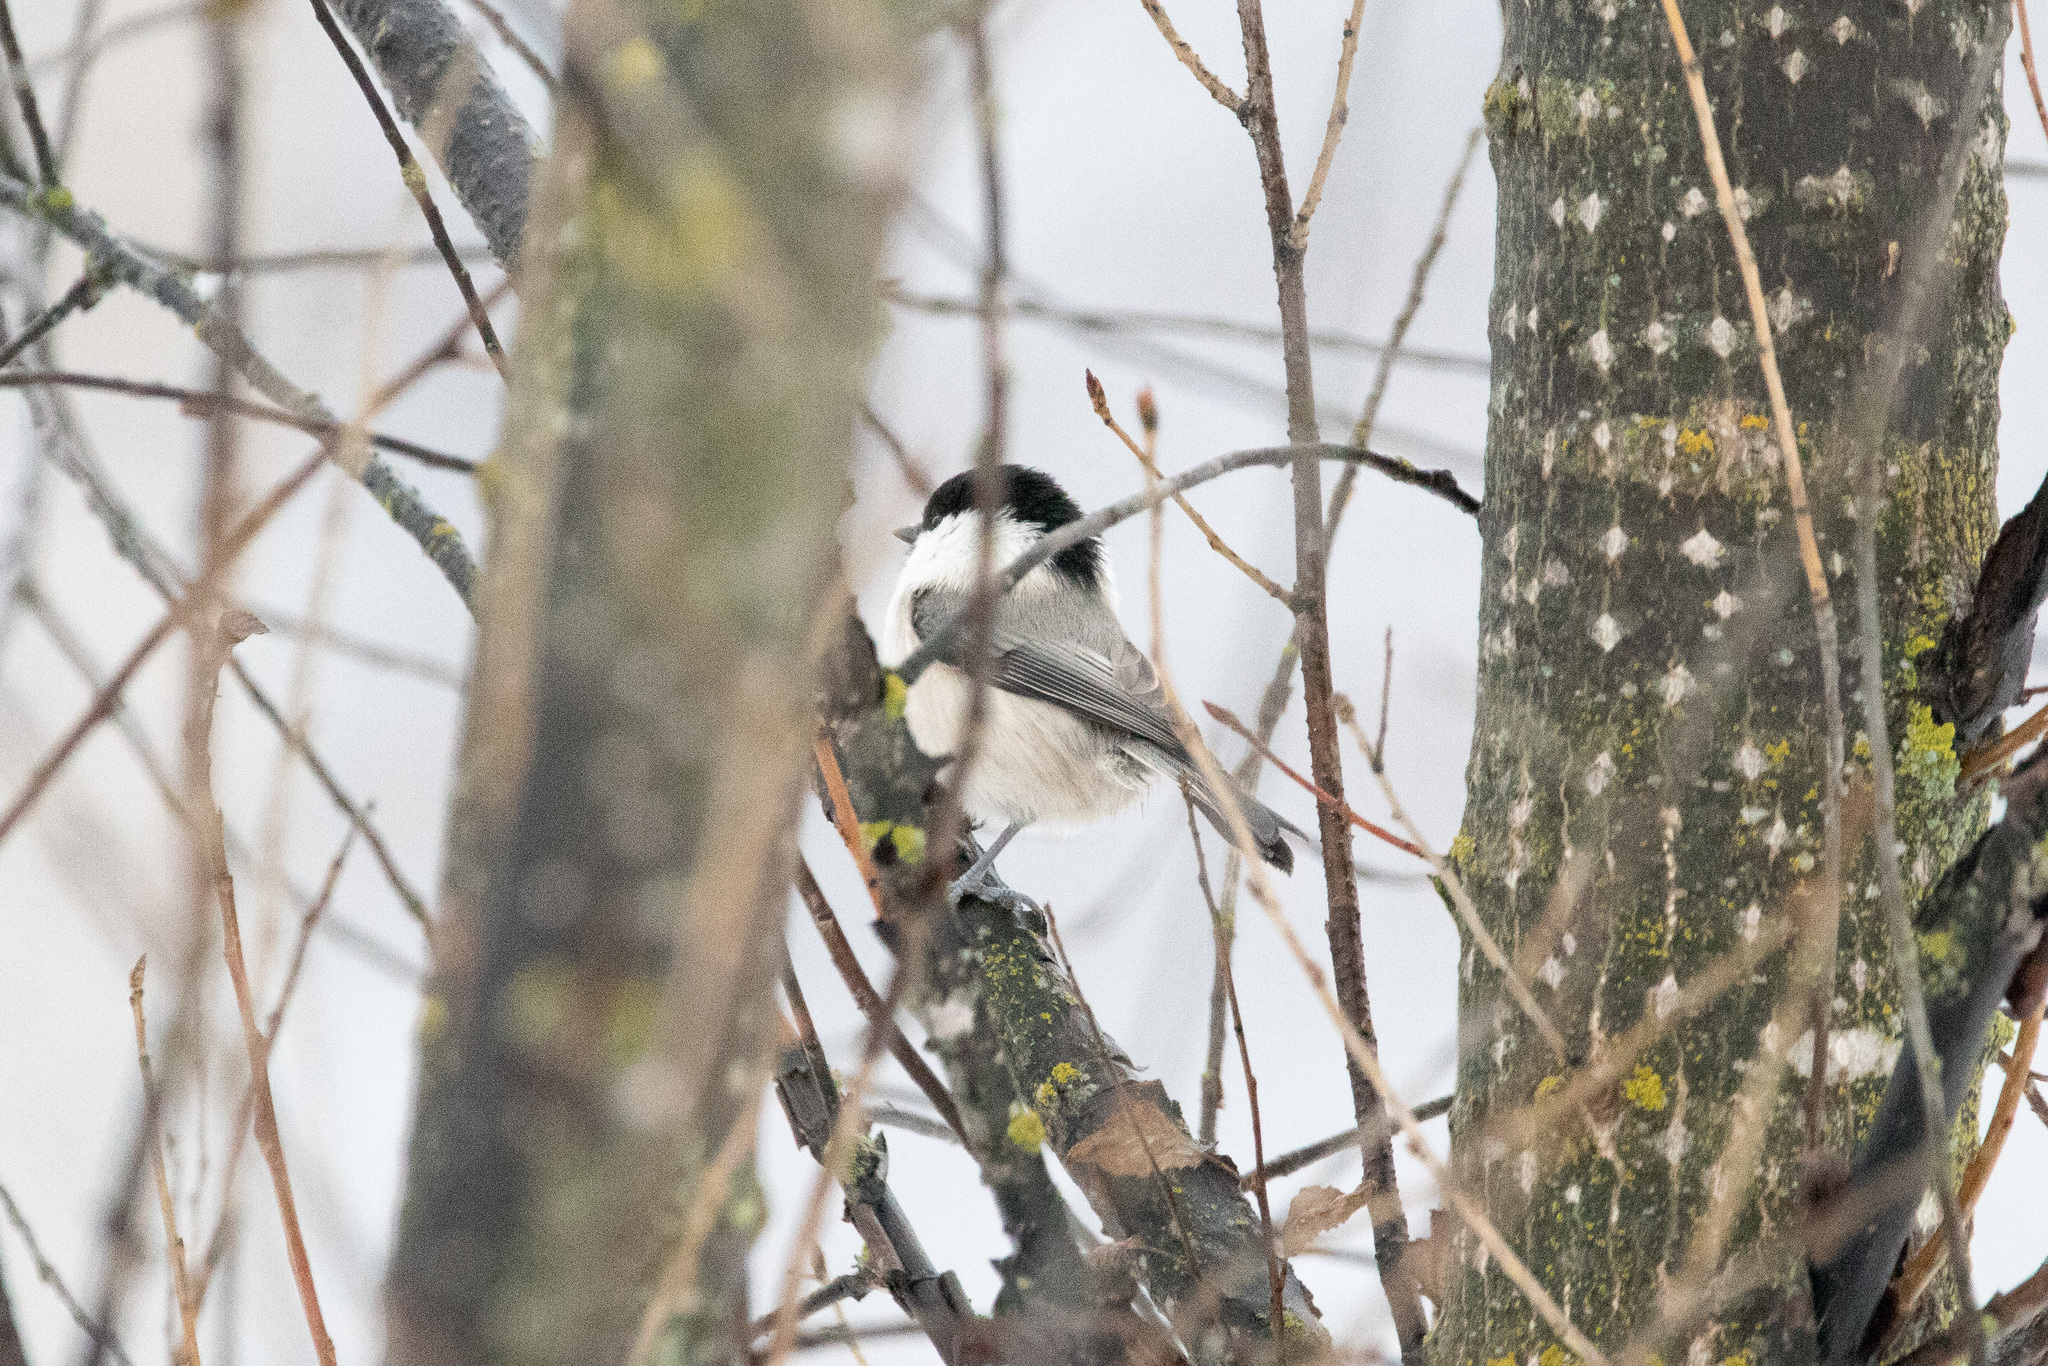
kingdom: Animalia
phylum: Chordata
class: Aves
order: Passeriformes
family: Paridae
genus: Poecile
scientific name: Poecile montanus
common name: Willow tit
